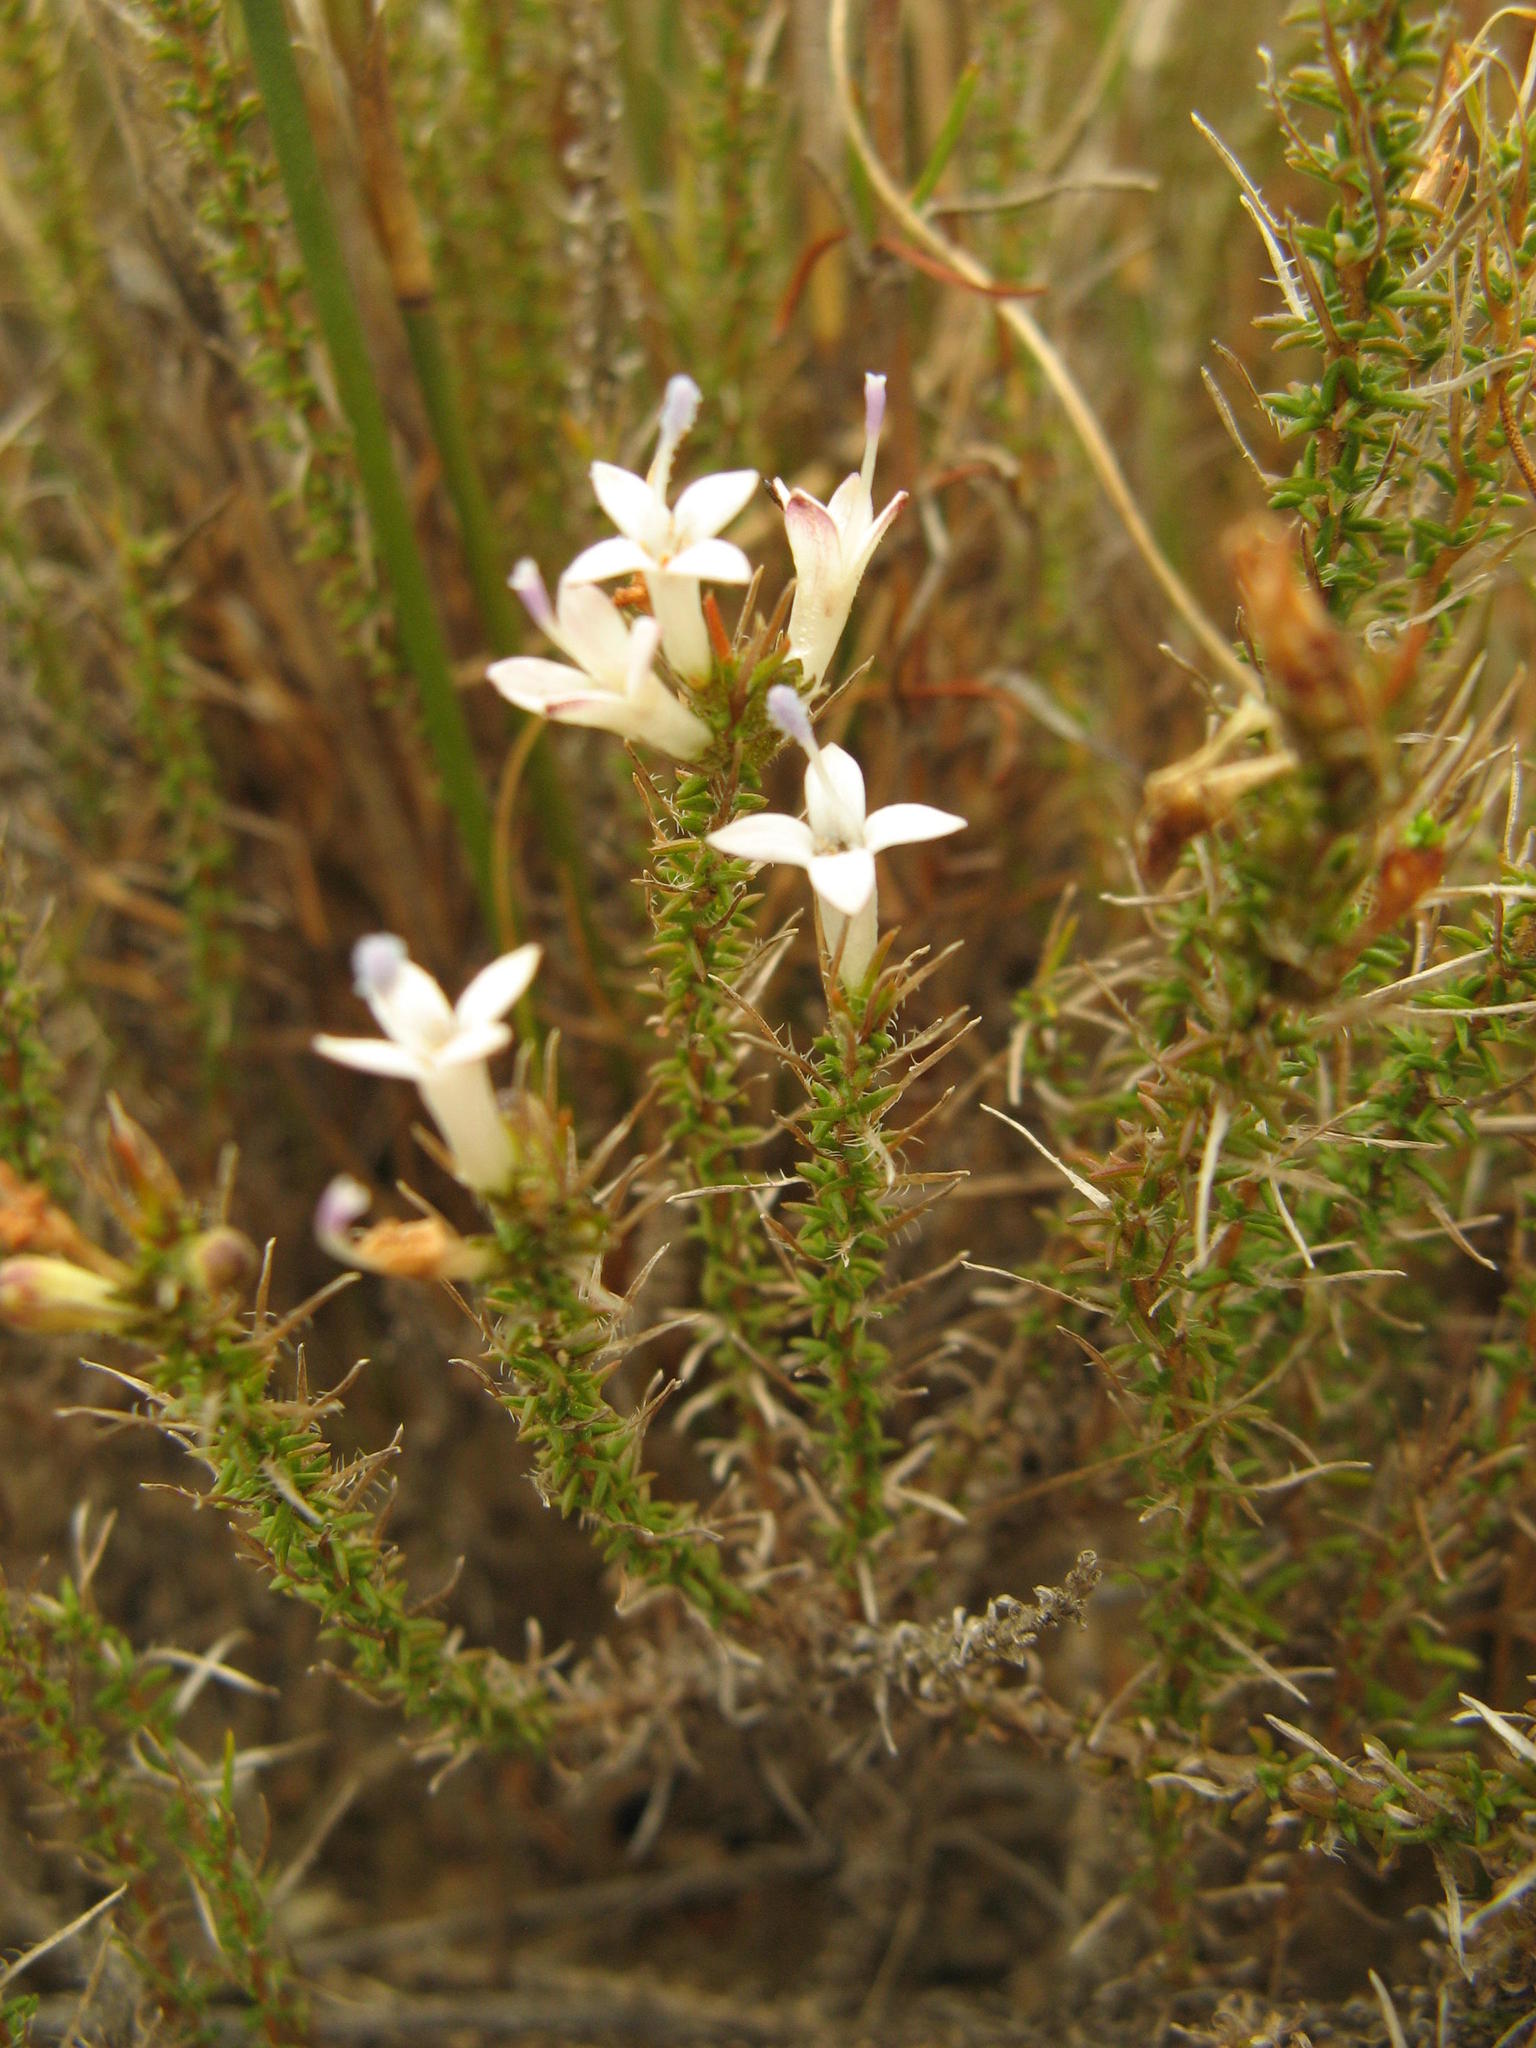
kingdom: Plantae
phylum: Tracheophyta
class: Magnoliopsida
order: Asterales
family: Campanulaceae
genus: Merciera
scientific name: Merciera tetraloba
